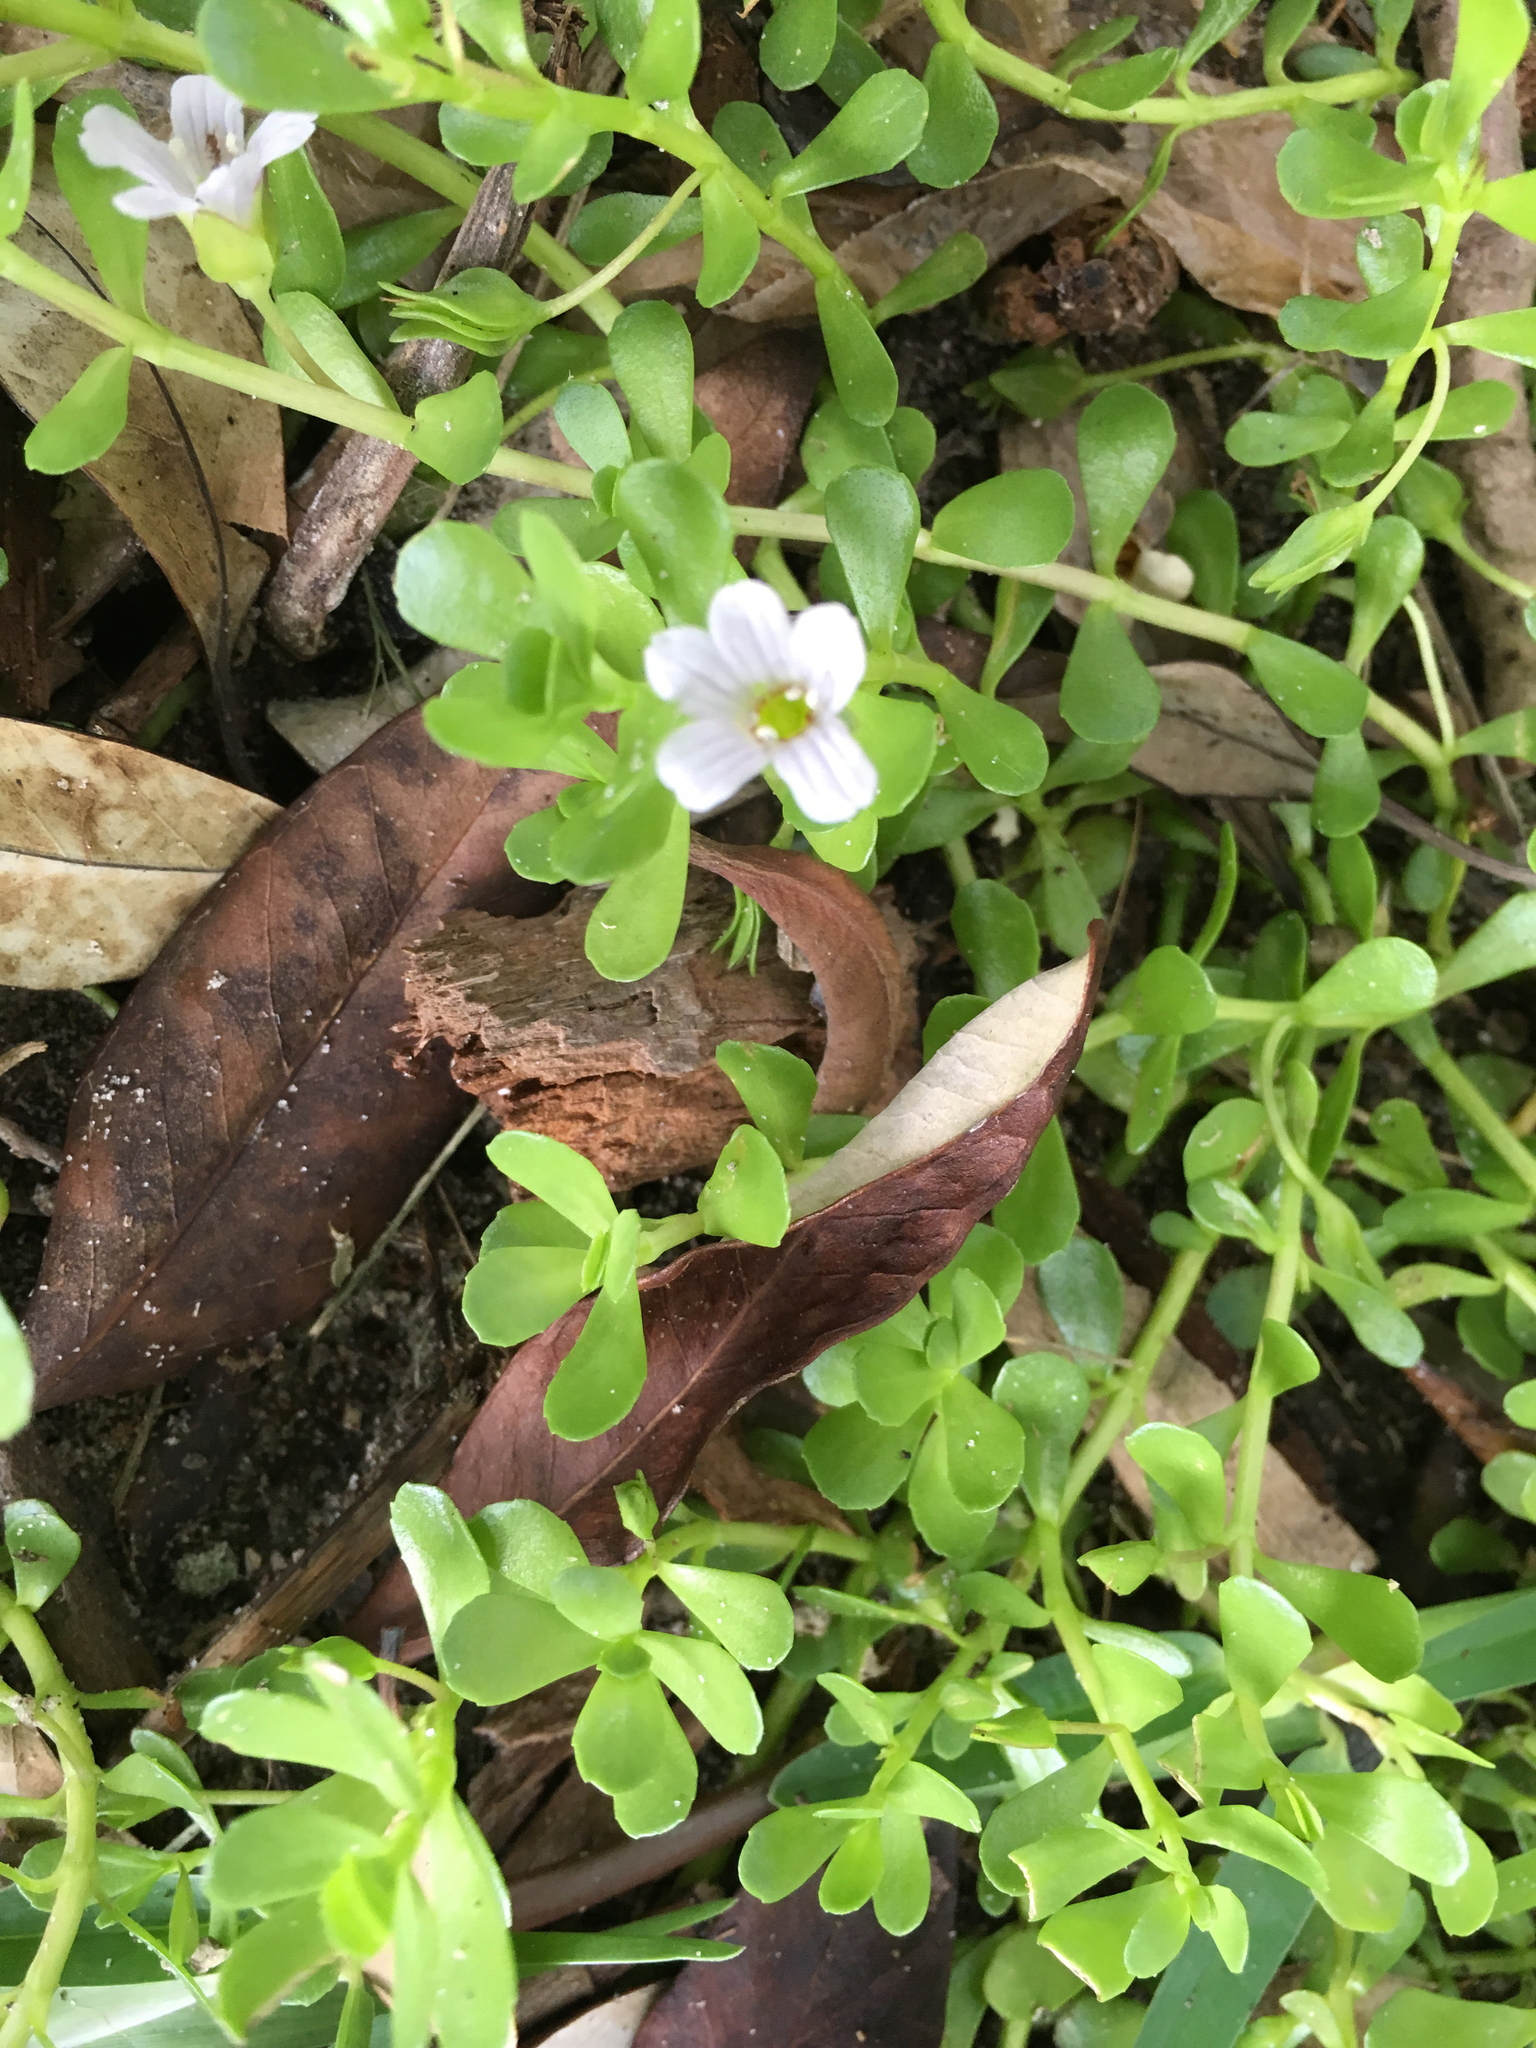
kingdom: Plantae
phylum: Tracheophyta
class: Magnoliopsida
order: Lamiales
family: Plantaginaceae
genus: Bacopa
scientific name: Bacopa monnieri
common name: Indian-pennywort
